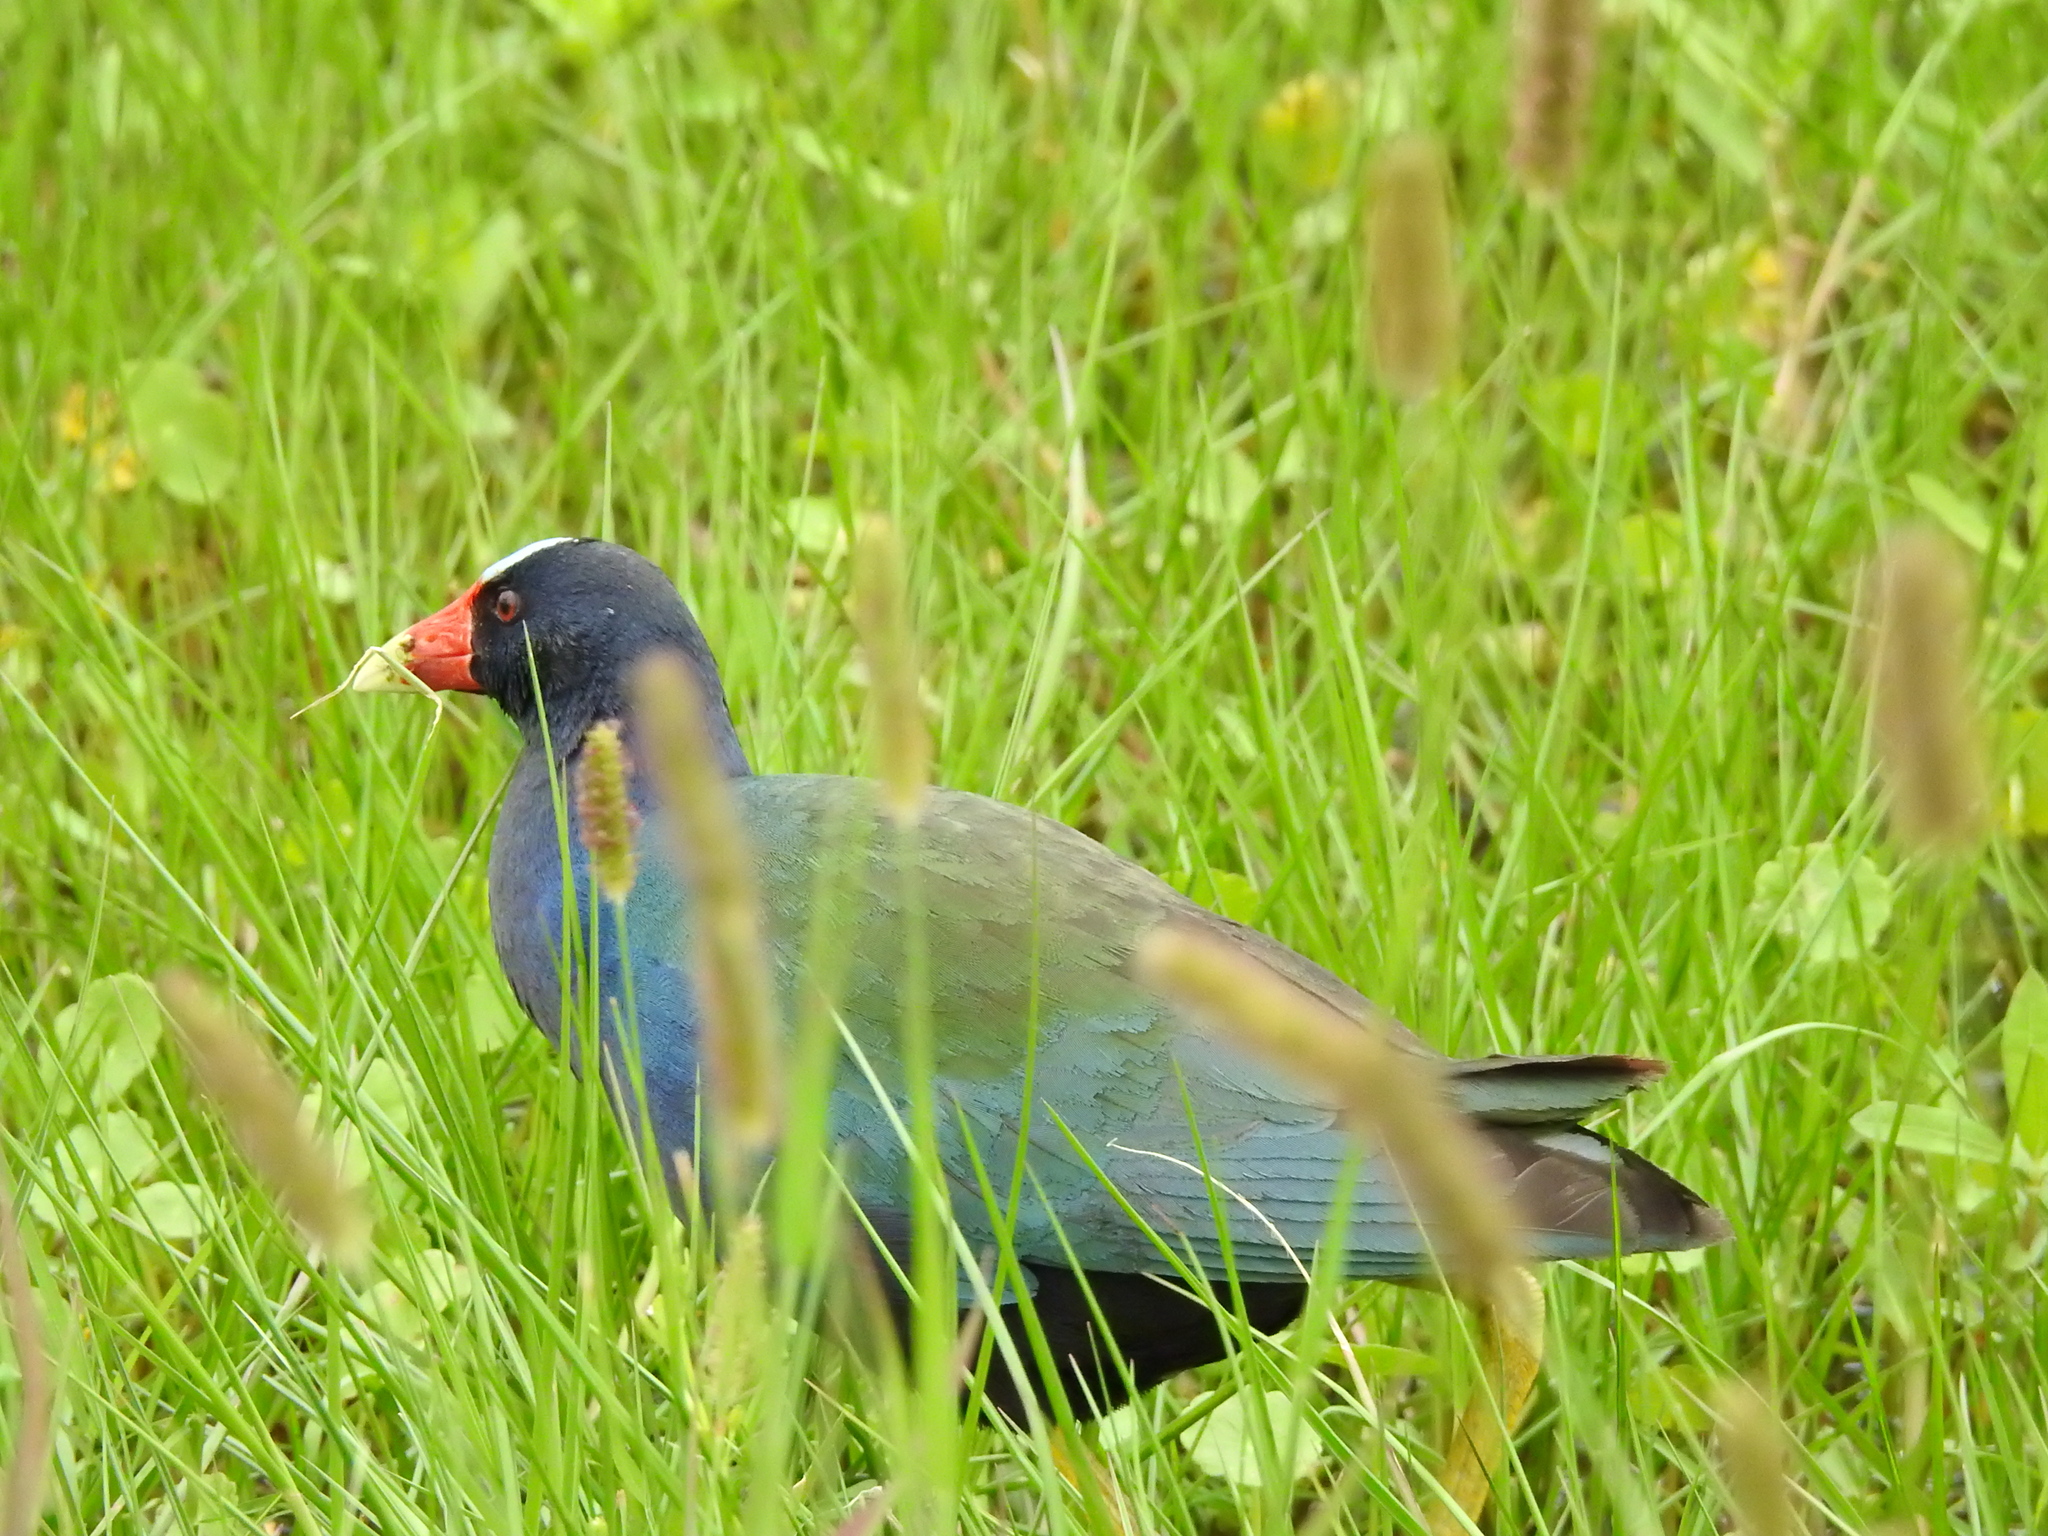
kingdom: Animalia
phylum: Chordata
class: Aves
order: Gruiformes
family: Rallidae
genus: Porphyrio
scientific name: Porphyrio martinica
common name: Purple gallinule
